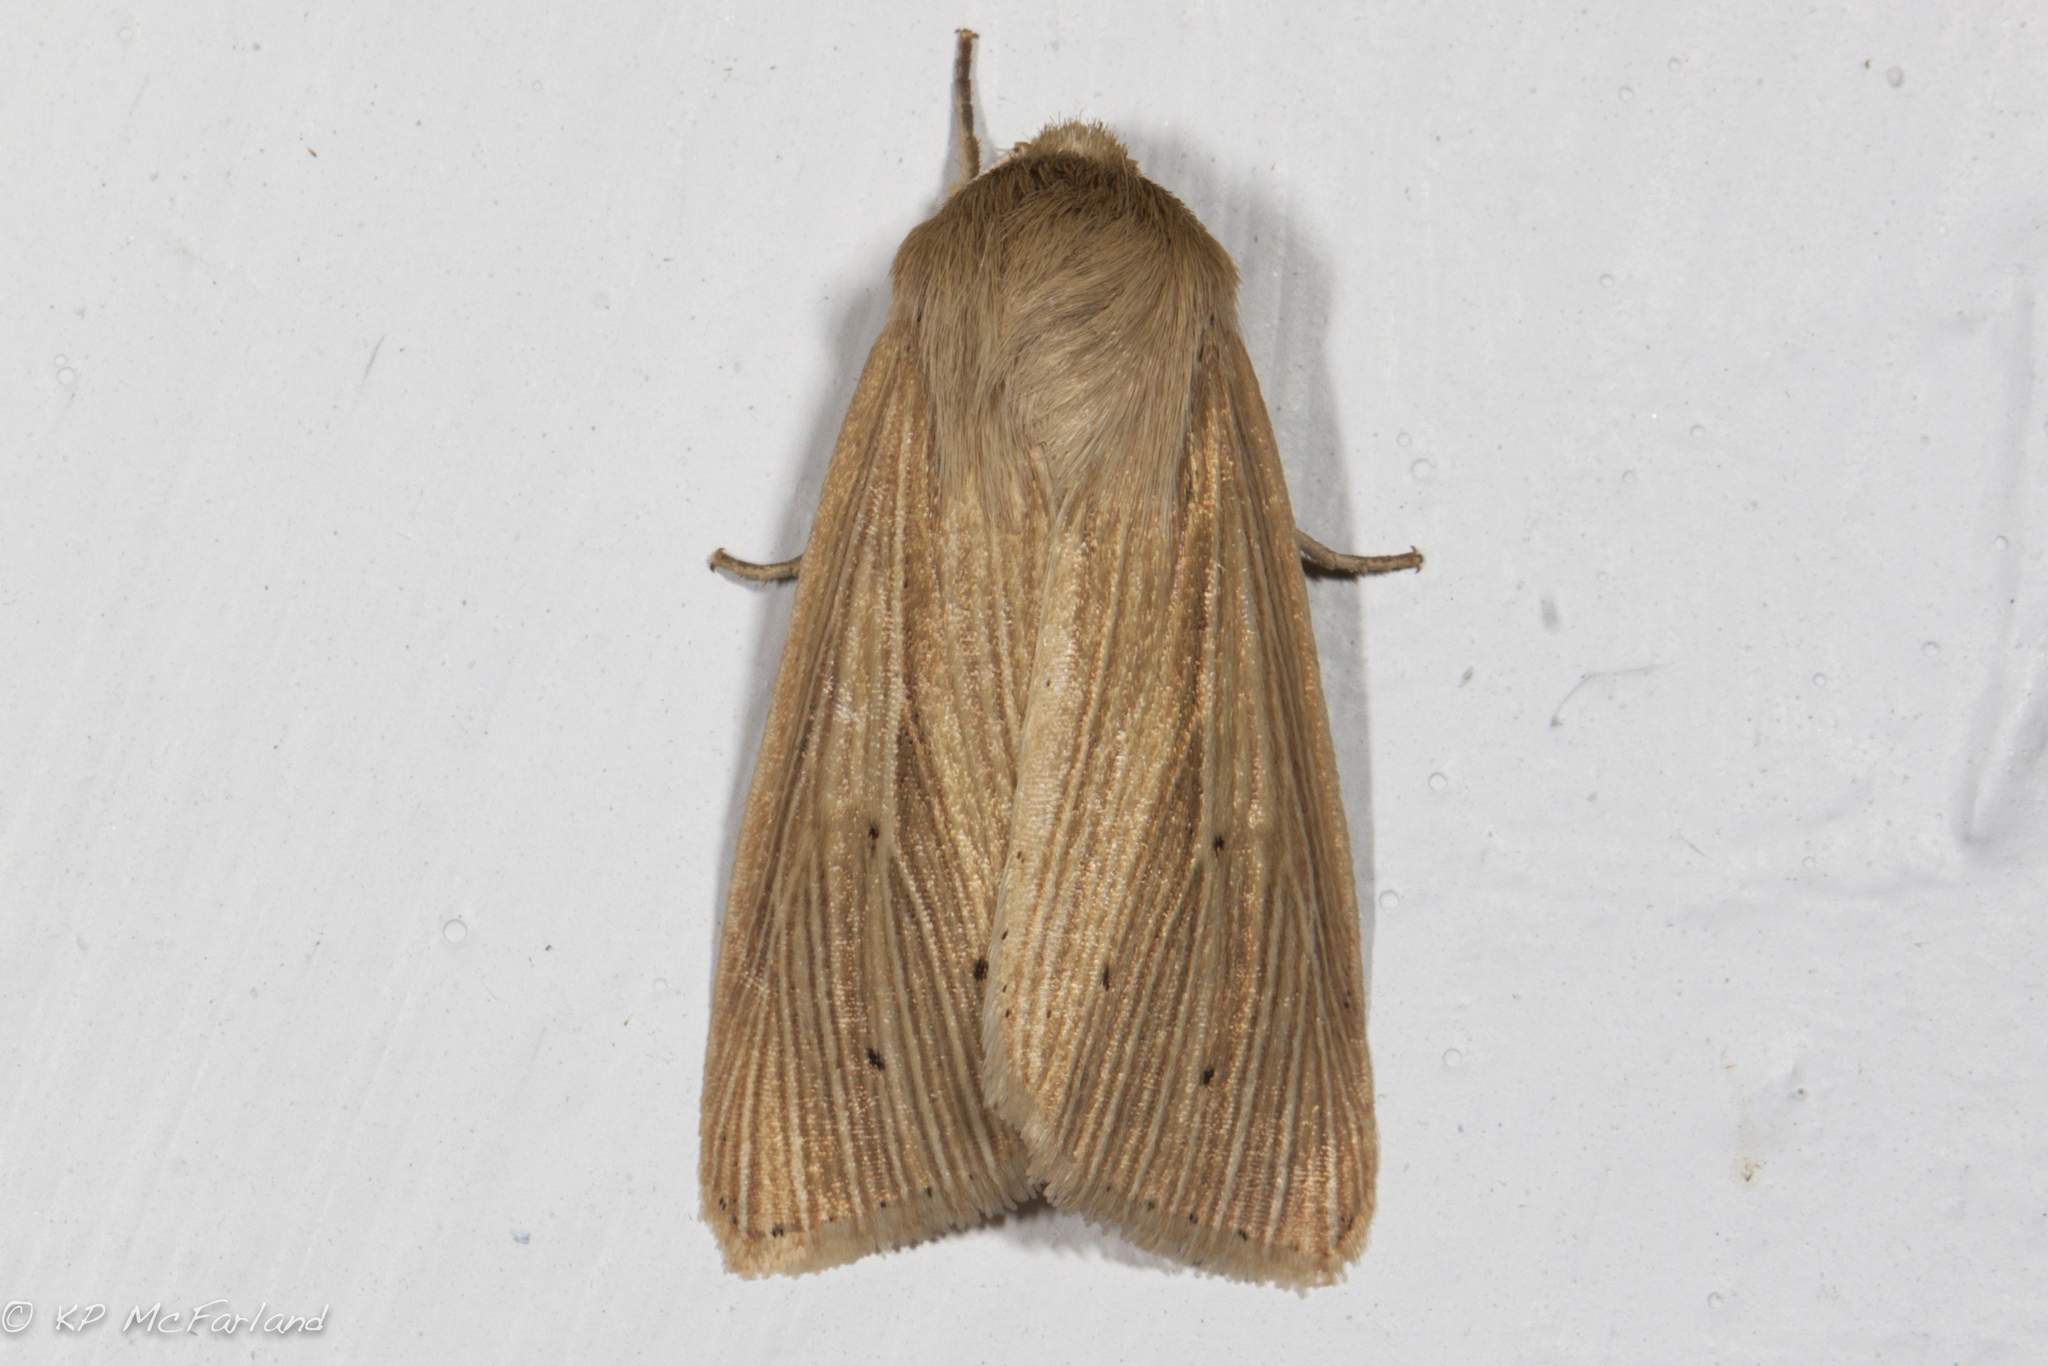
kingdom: Animalia
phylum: Arthropoda
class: Insecta
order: Lepidoptera
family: Noctuidae
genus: Mythimna
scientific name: Mythimna oxygala
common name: Lesser wainscot
